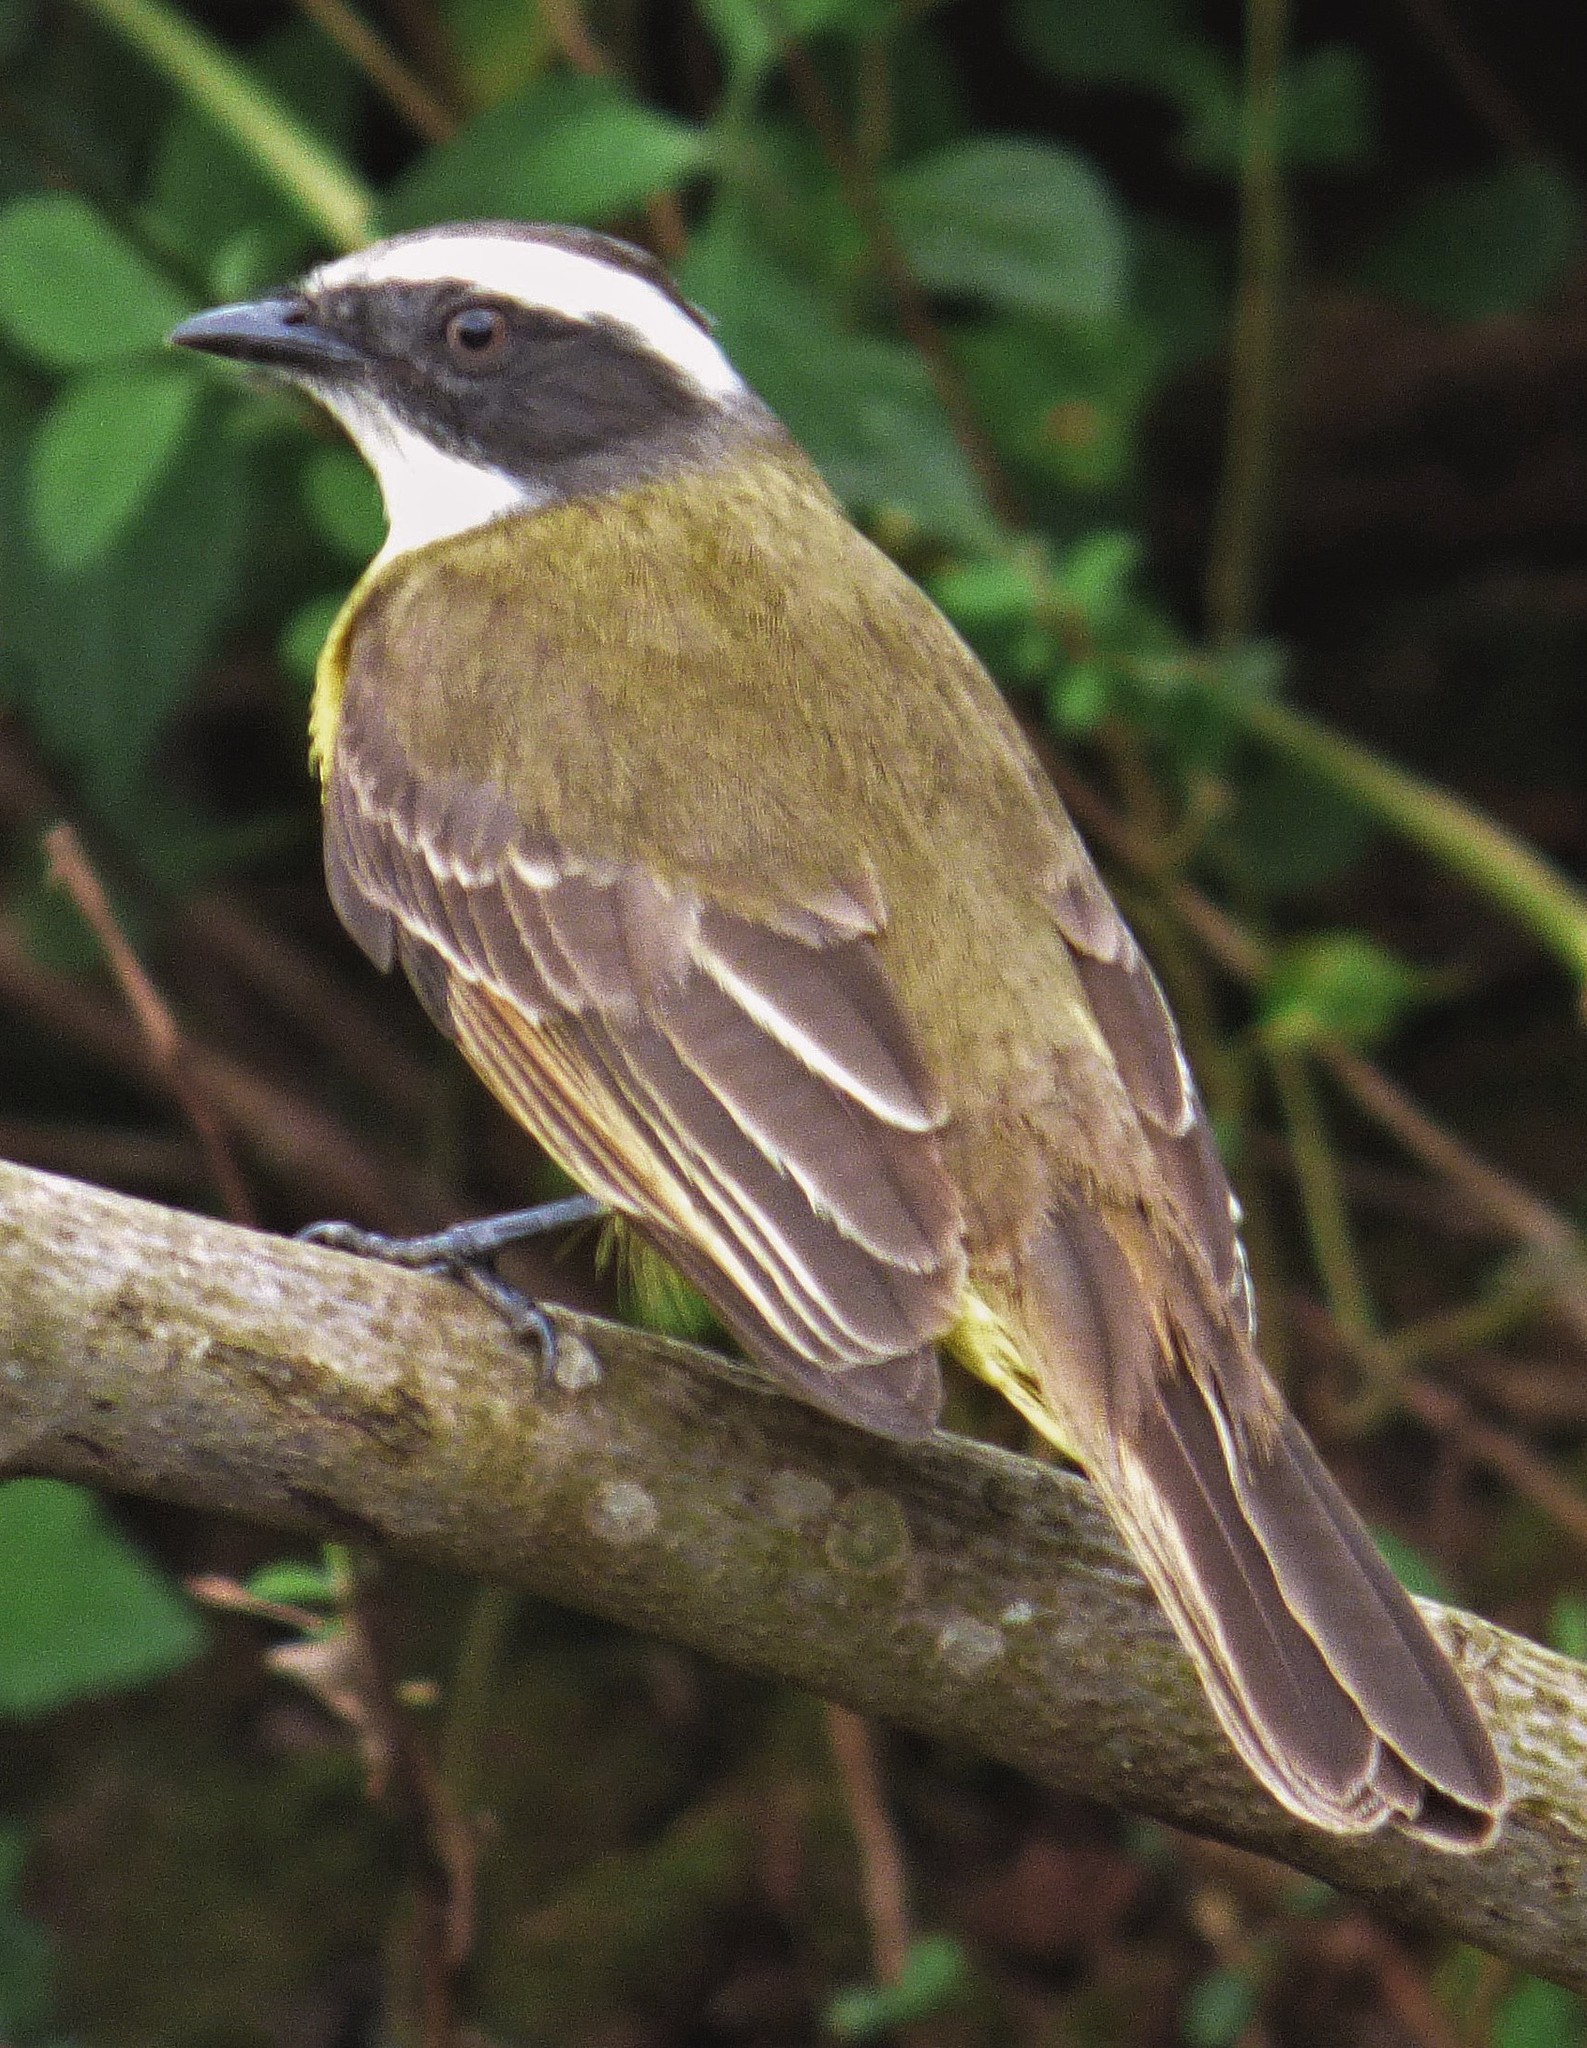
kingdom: Animalia
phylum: Chordata
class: Aves
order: Passeriformes
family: Tyrannidae
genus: Myiozetetes
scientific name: Myiozetetes similis
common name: Social flycatcher
